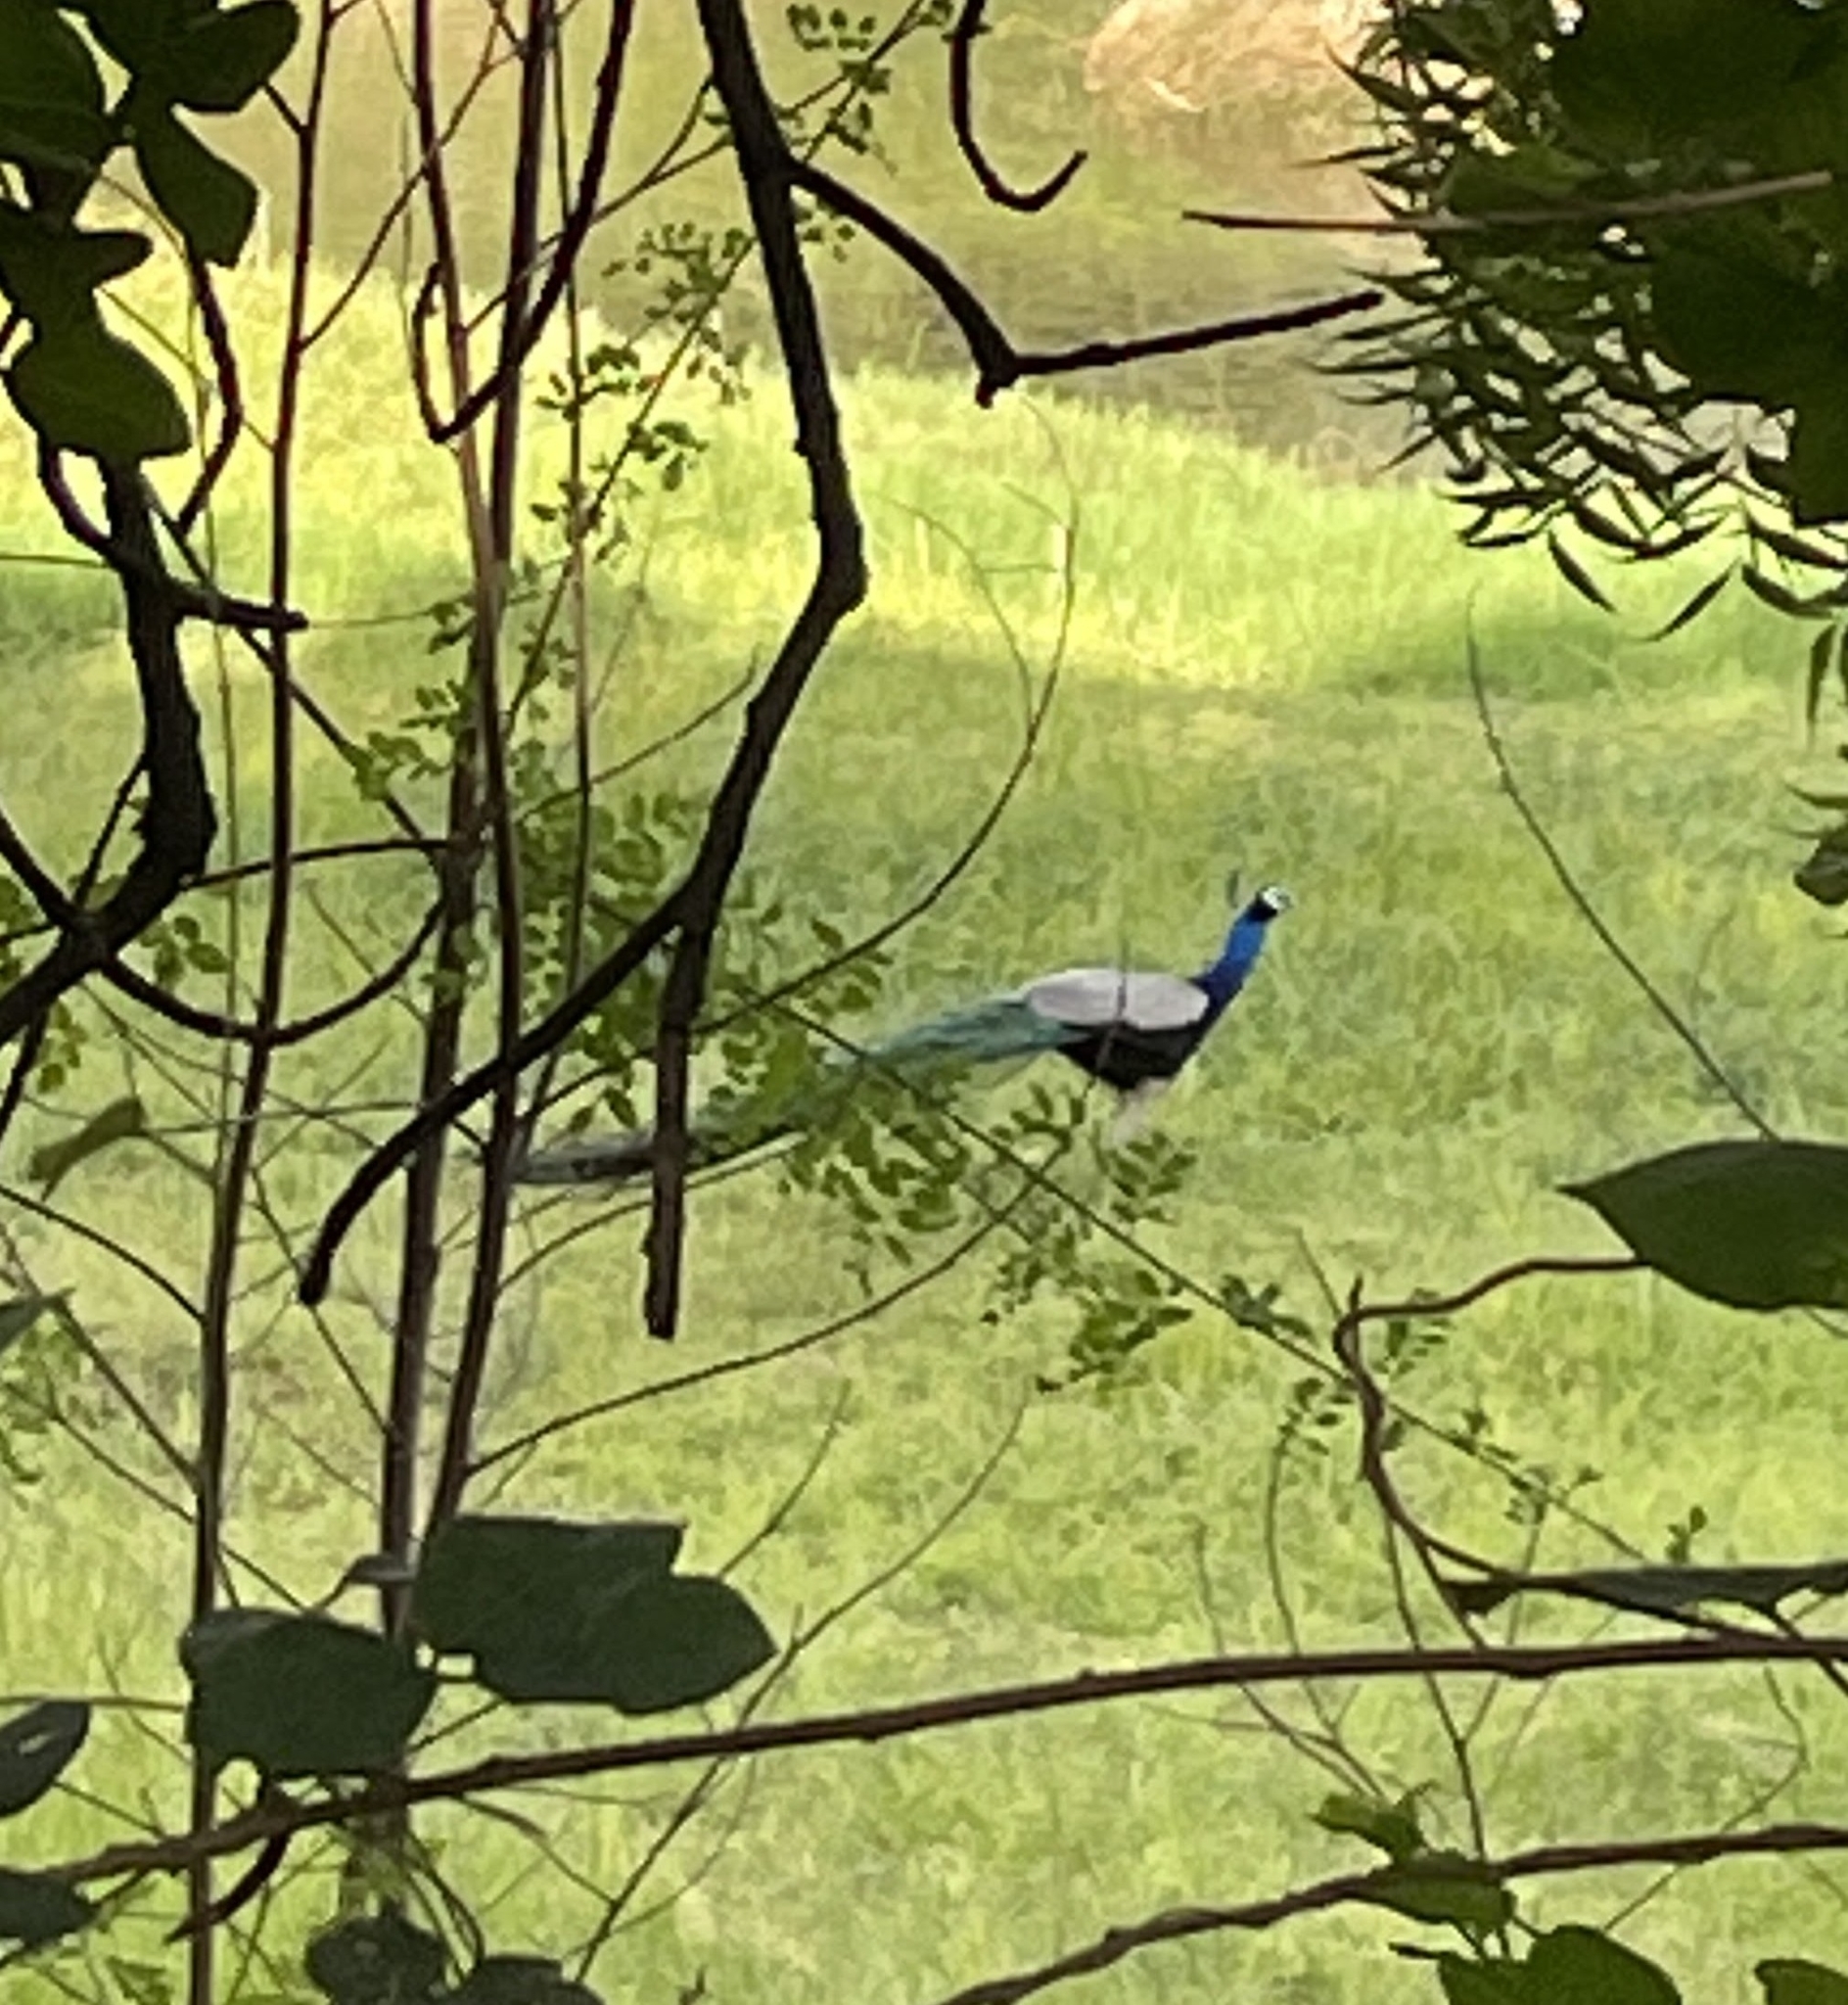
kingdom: Animalia
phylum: Chordata
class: Aves
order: Galliformes
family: Phasianidae
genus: Pavo
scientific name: Pavo cristatus
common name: Indian peafowl
